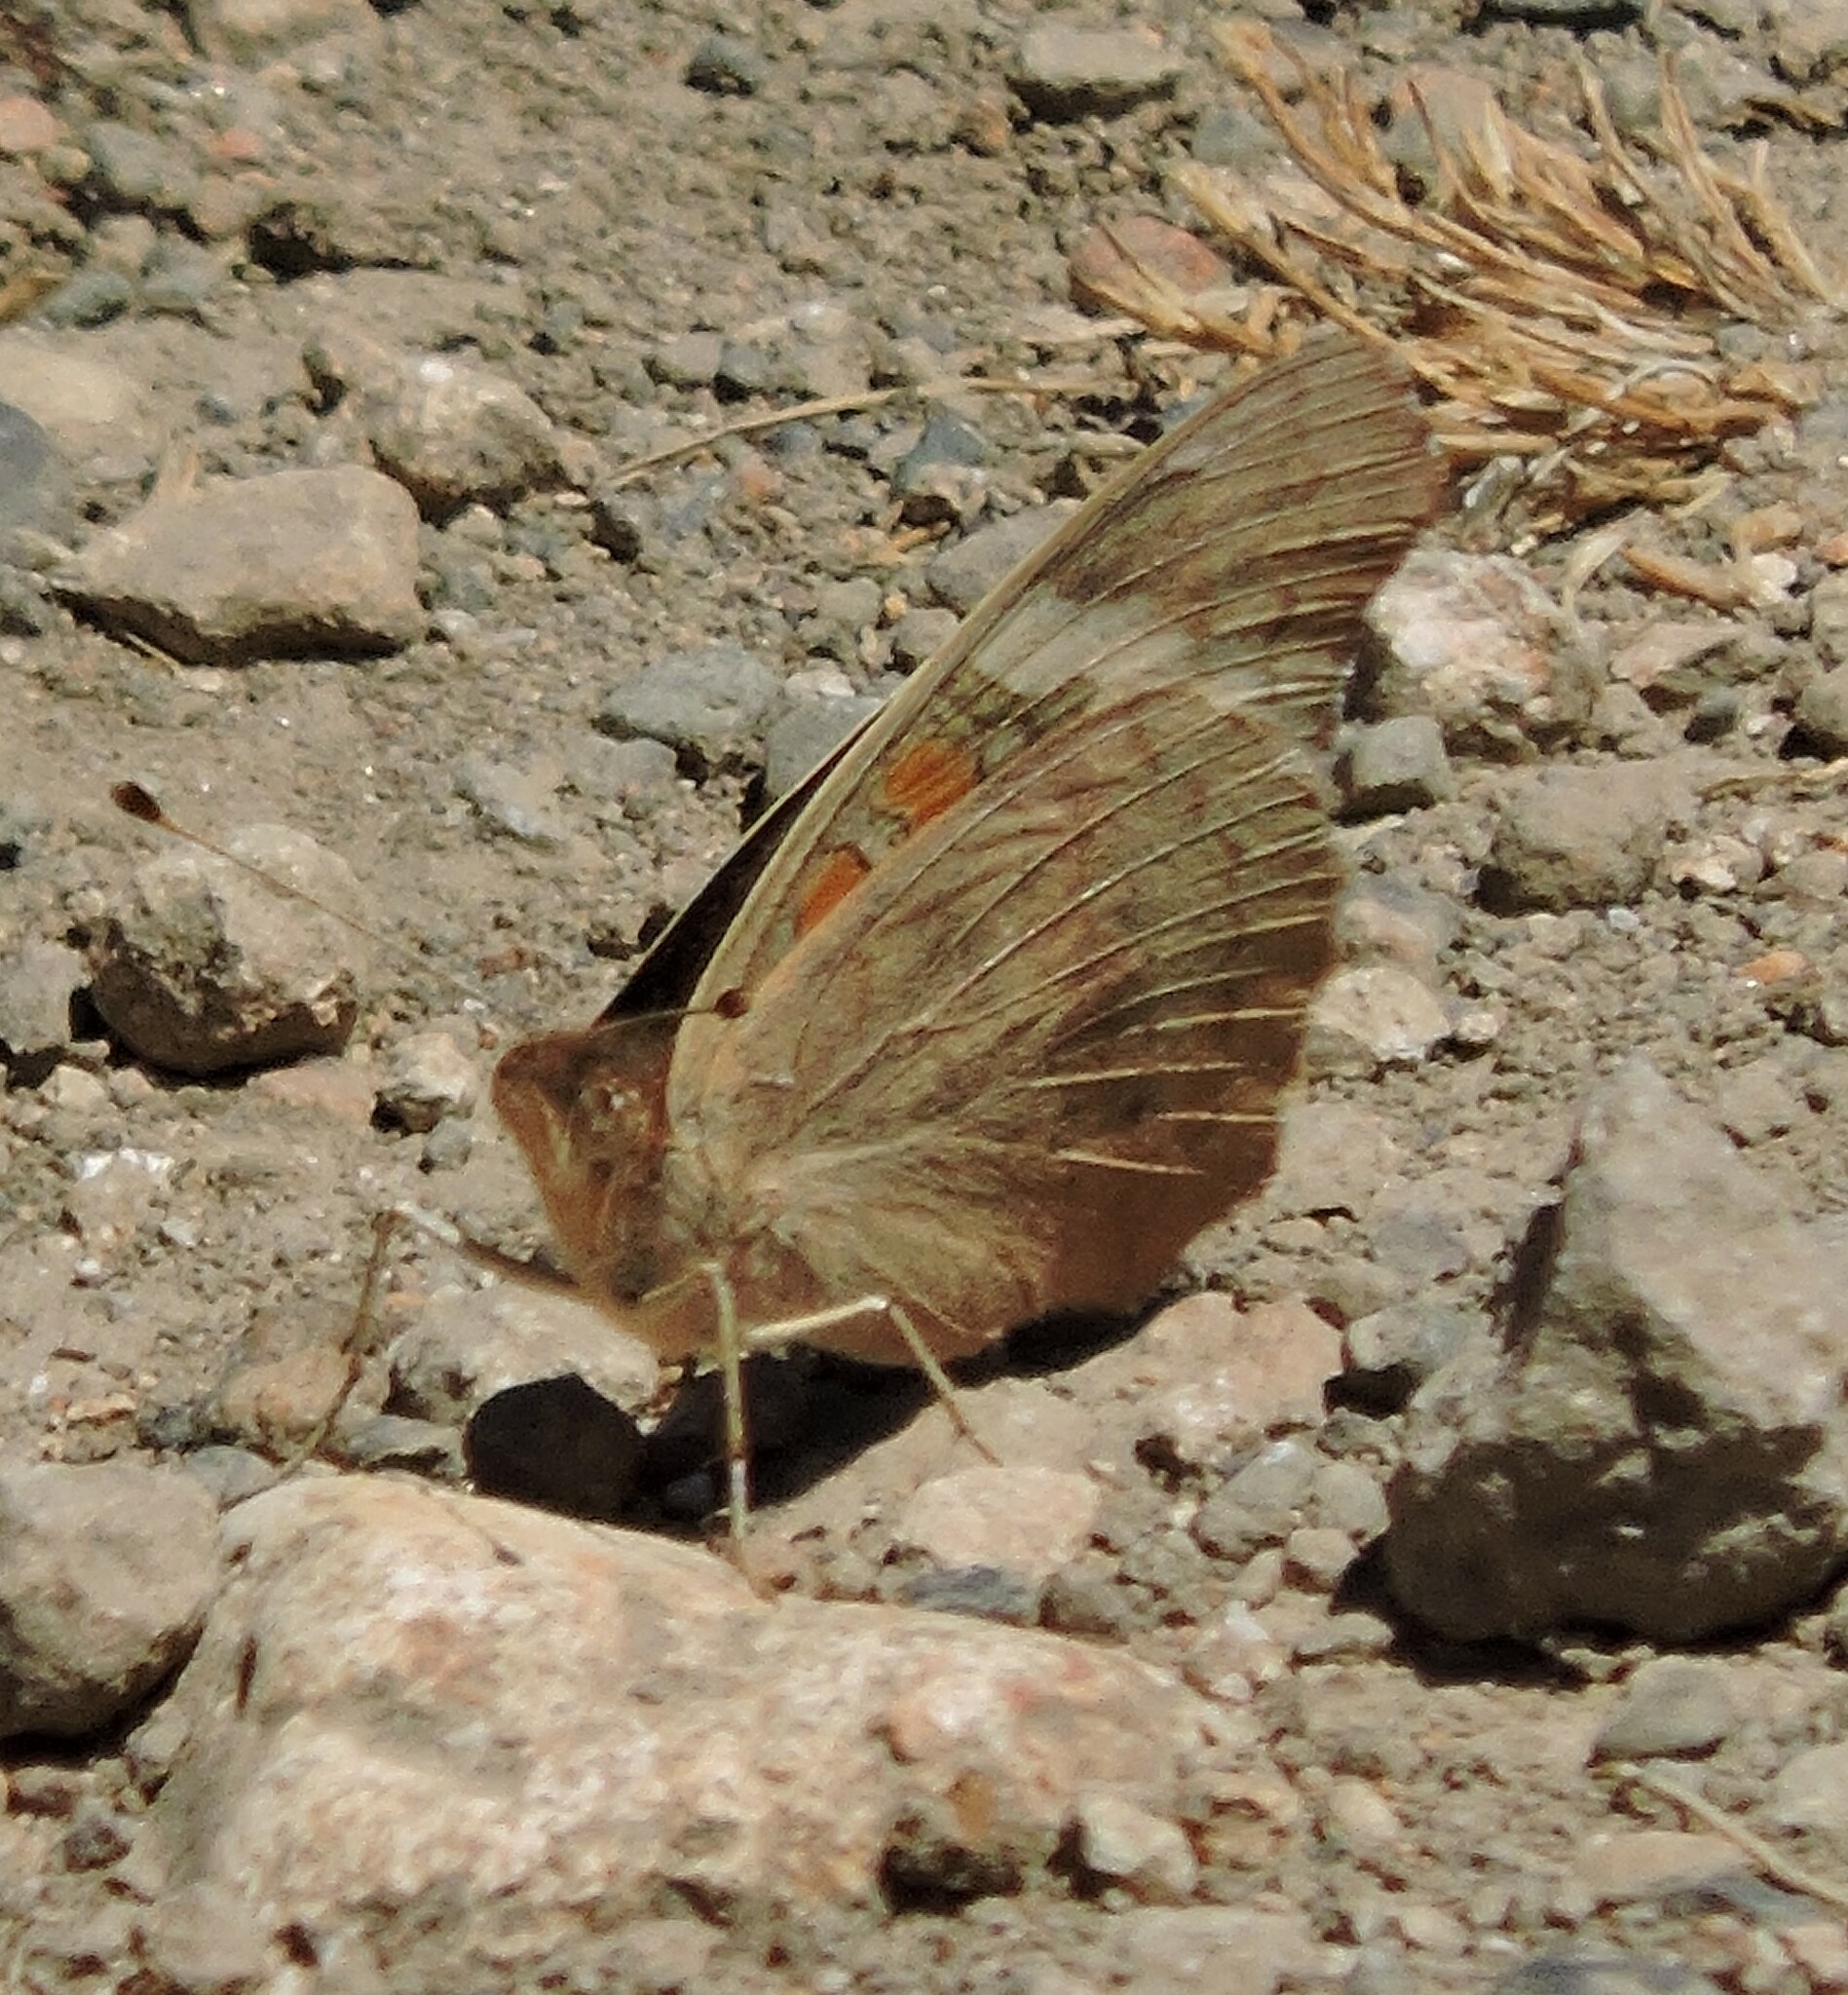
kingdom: Animalia
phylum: Arthropoda
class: Insecta
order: Lepidoptera
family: Nymphalidae
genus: Junonia
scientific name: Junonia grisea
